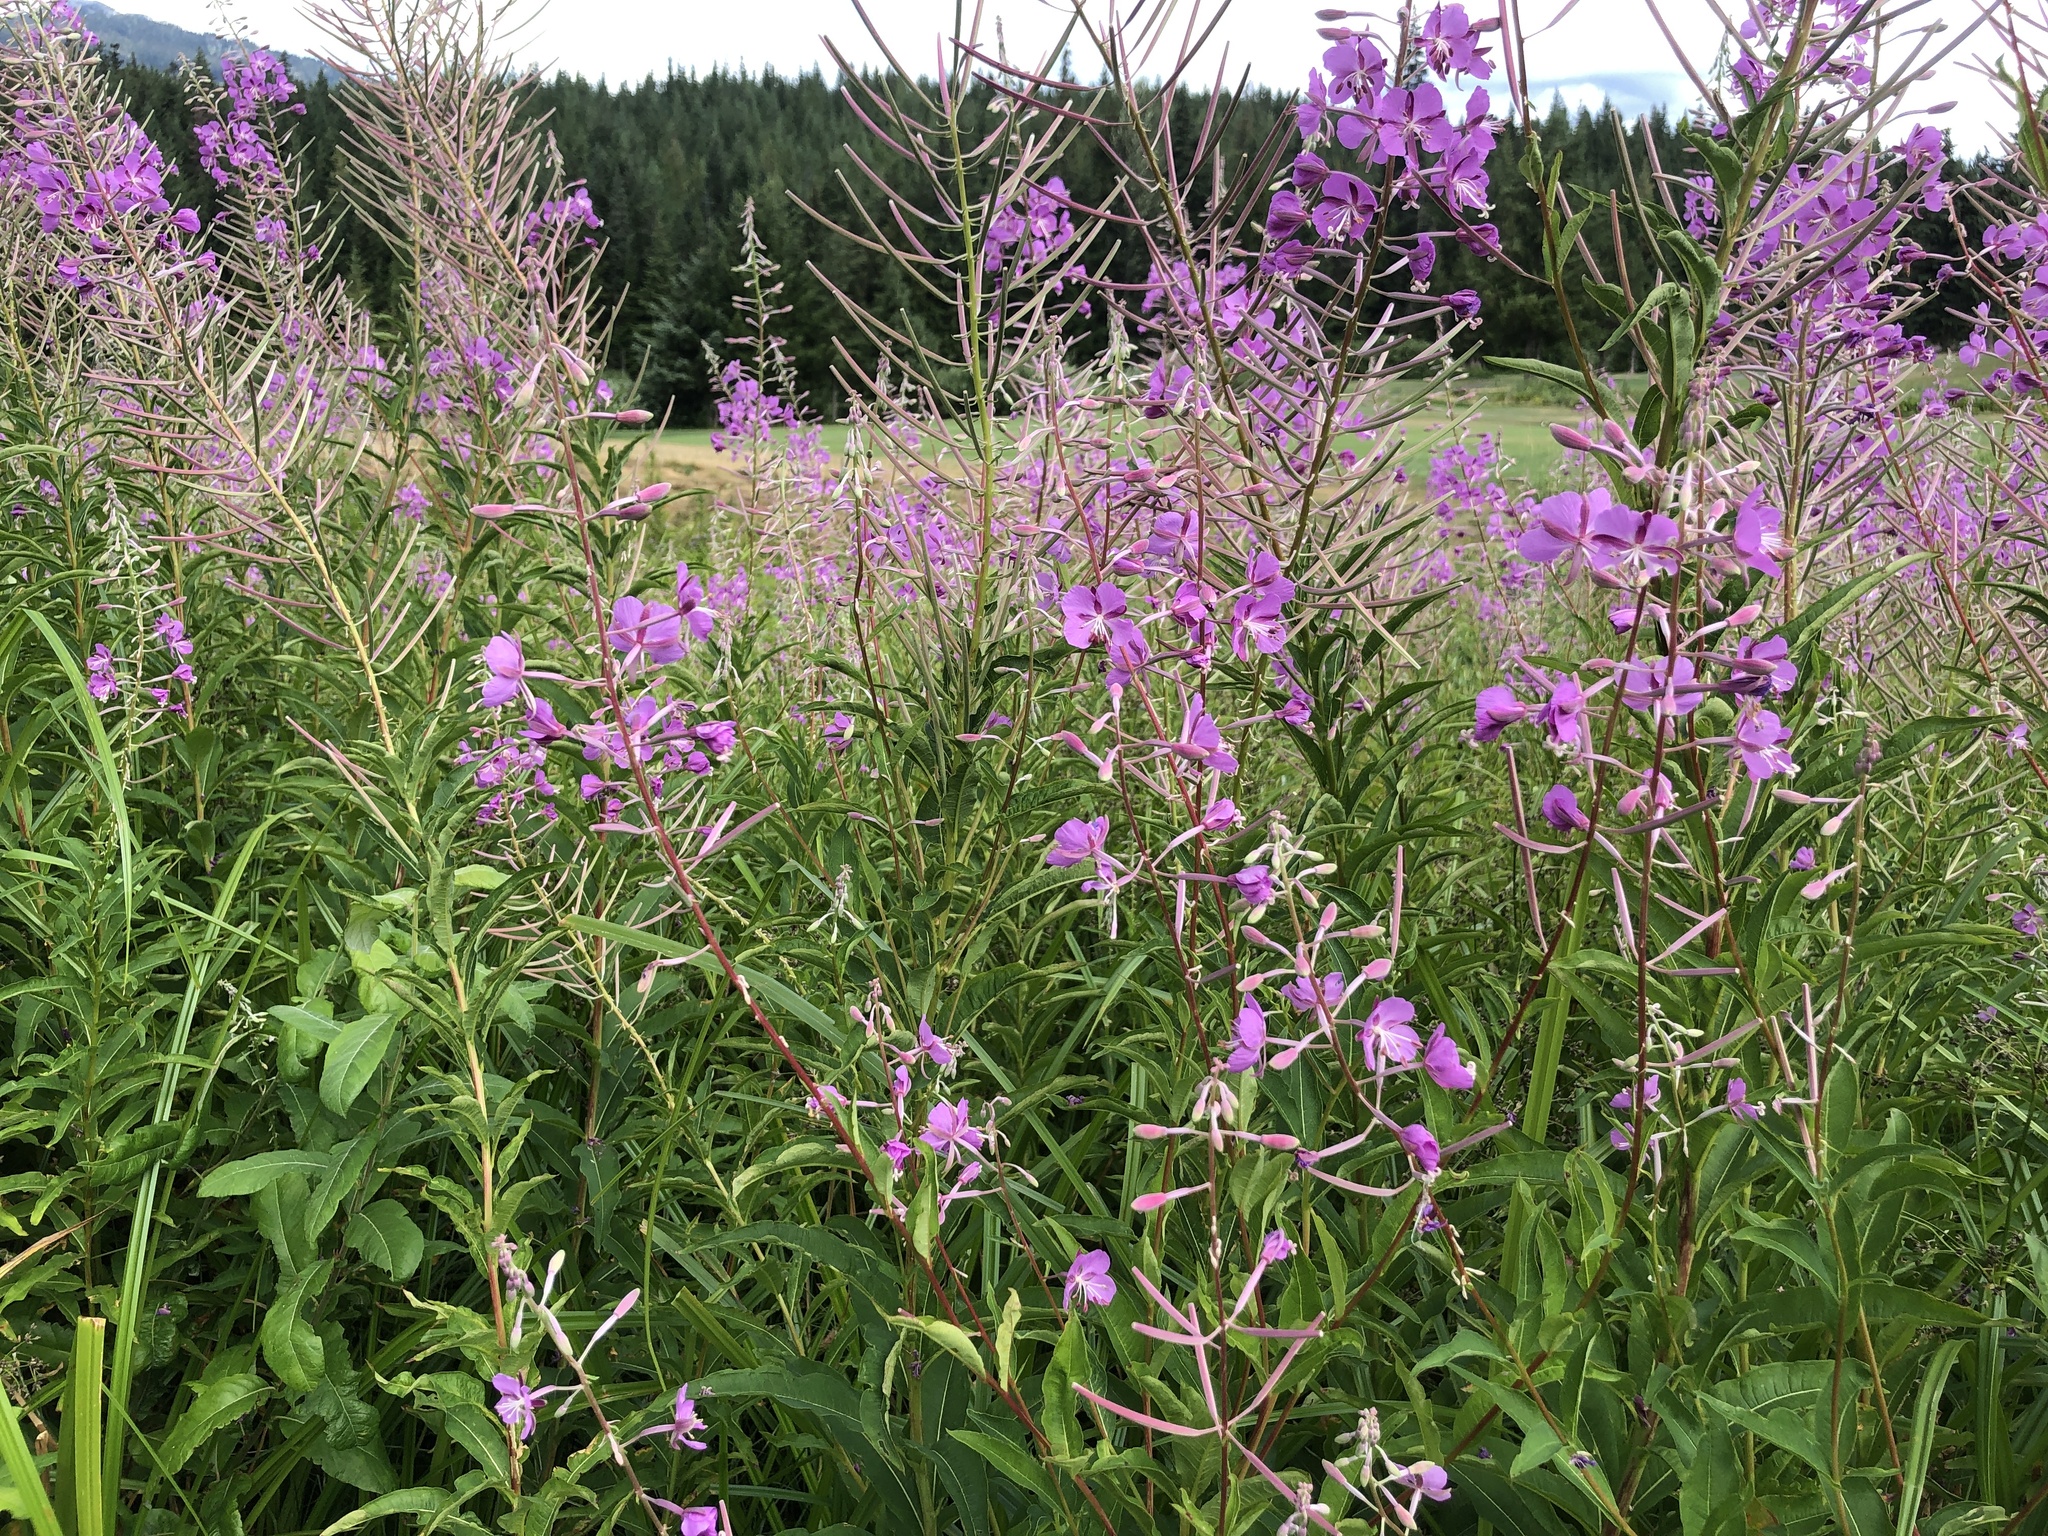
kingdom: Plantae
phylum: Tracheophyta
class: Magnoliopsida
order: Myrtales
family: Onagraceae
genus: Chamaenerion
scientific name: Chamaenerion angustifolium
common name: Fireweed
